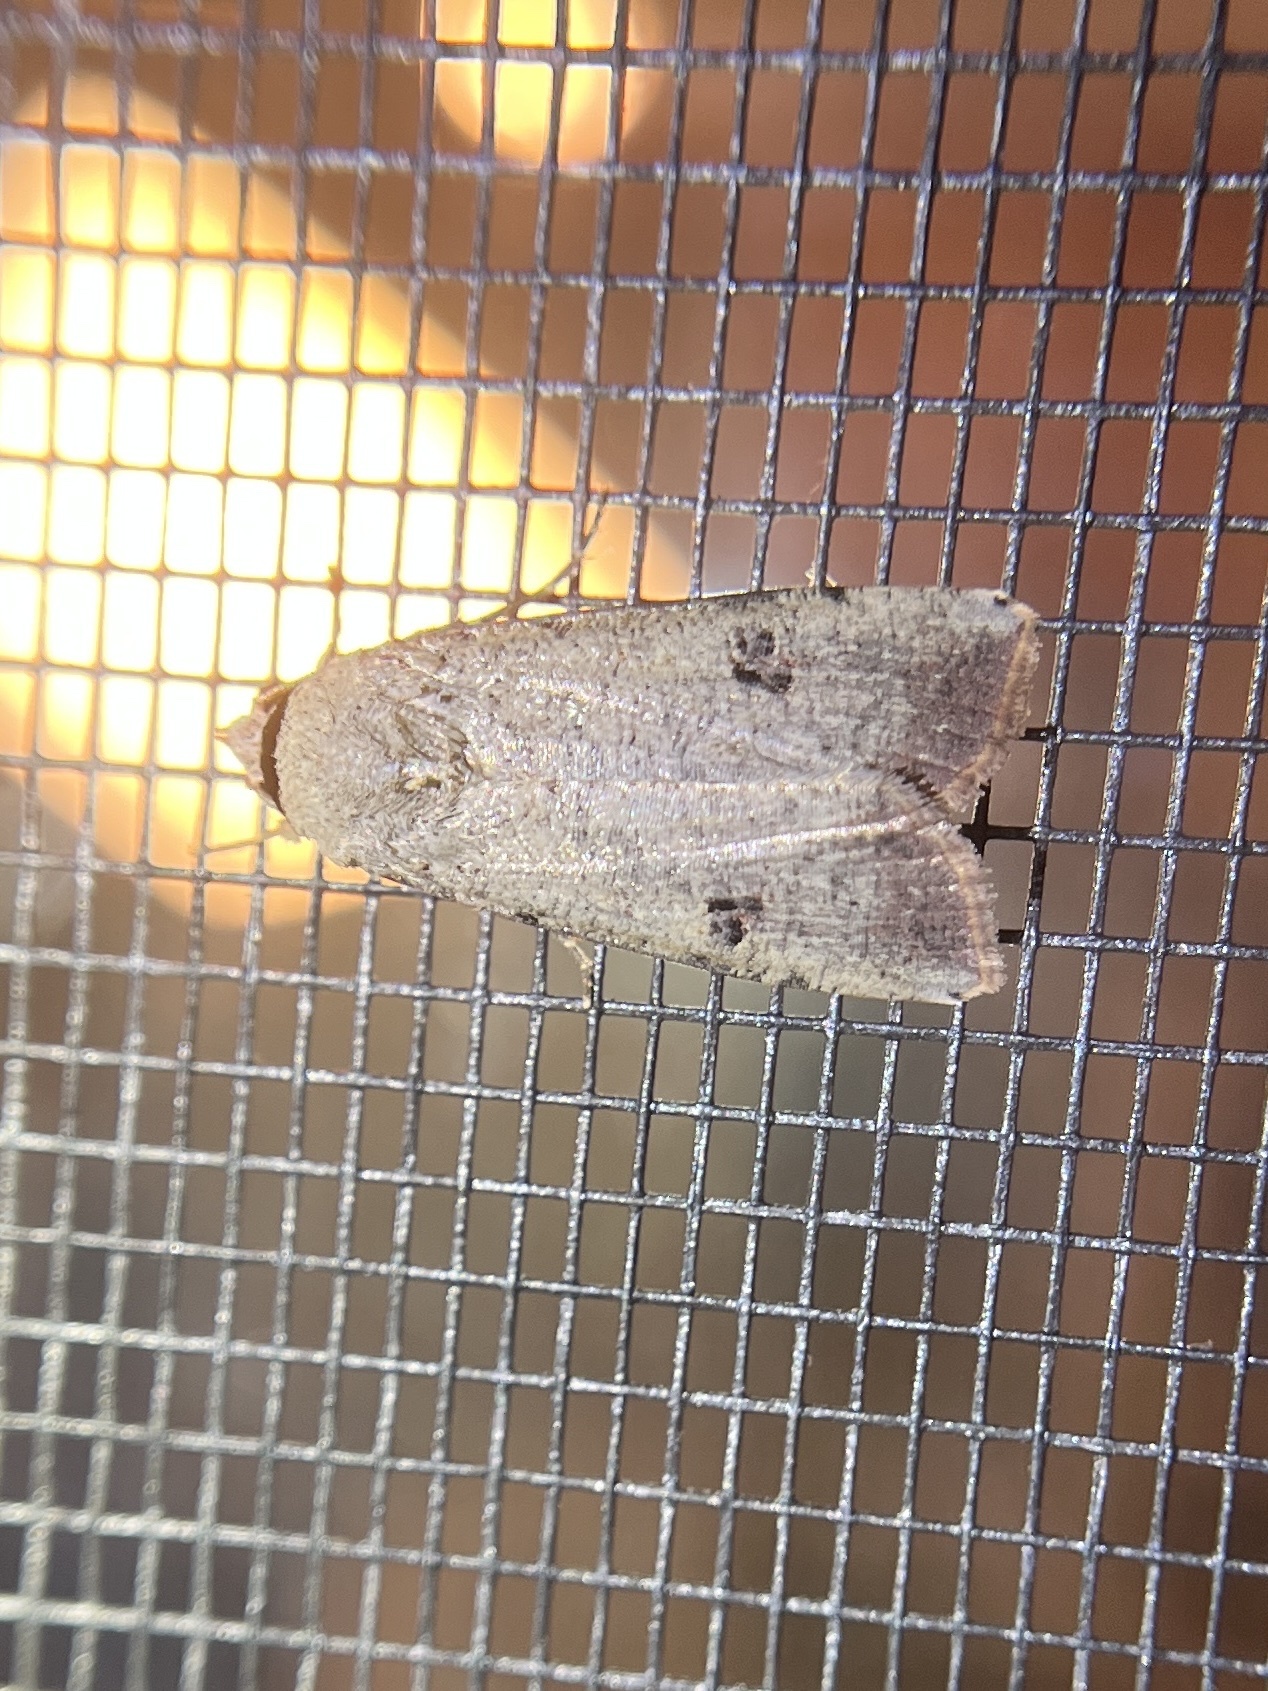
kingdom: Animalia
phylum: Arthropoda
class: Insecta
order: Lepidoptera
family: Noctuidae
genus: Anicla
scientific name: Anicla infecta
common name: Green cutworm
